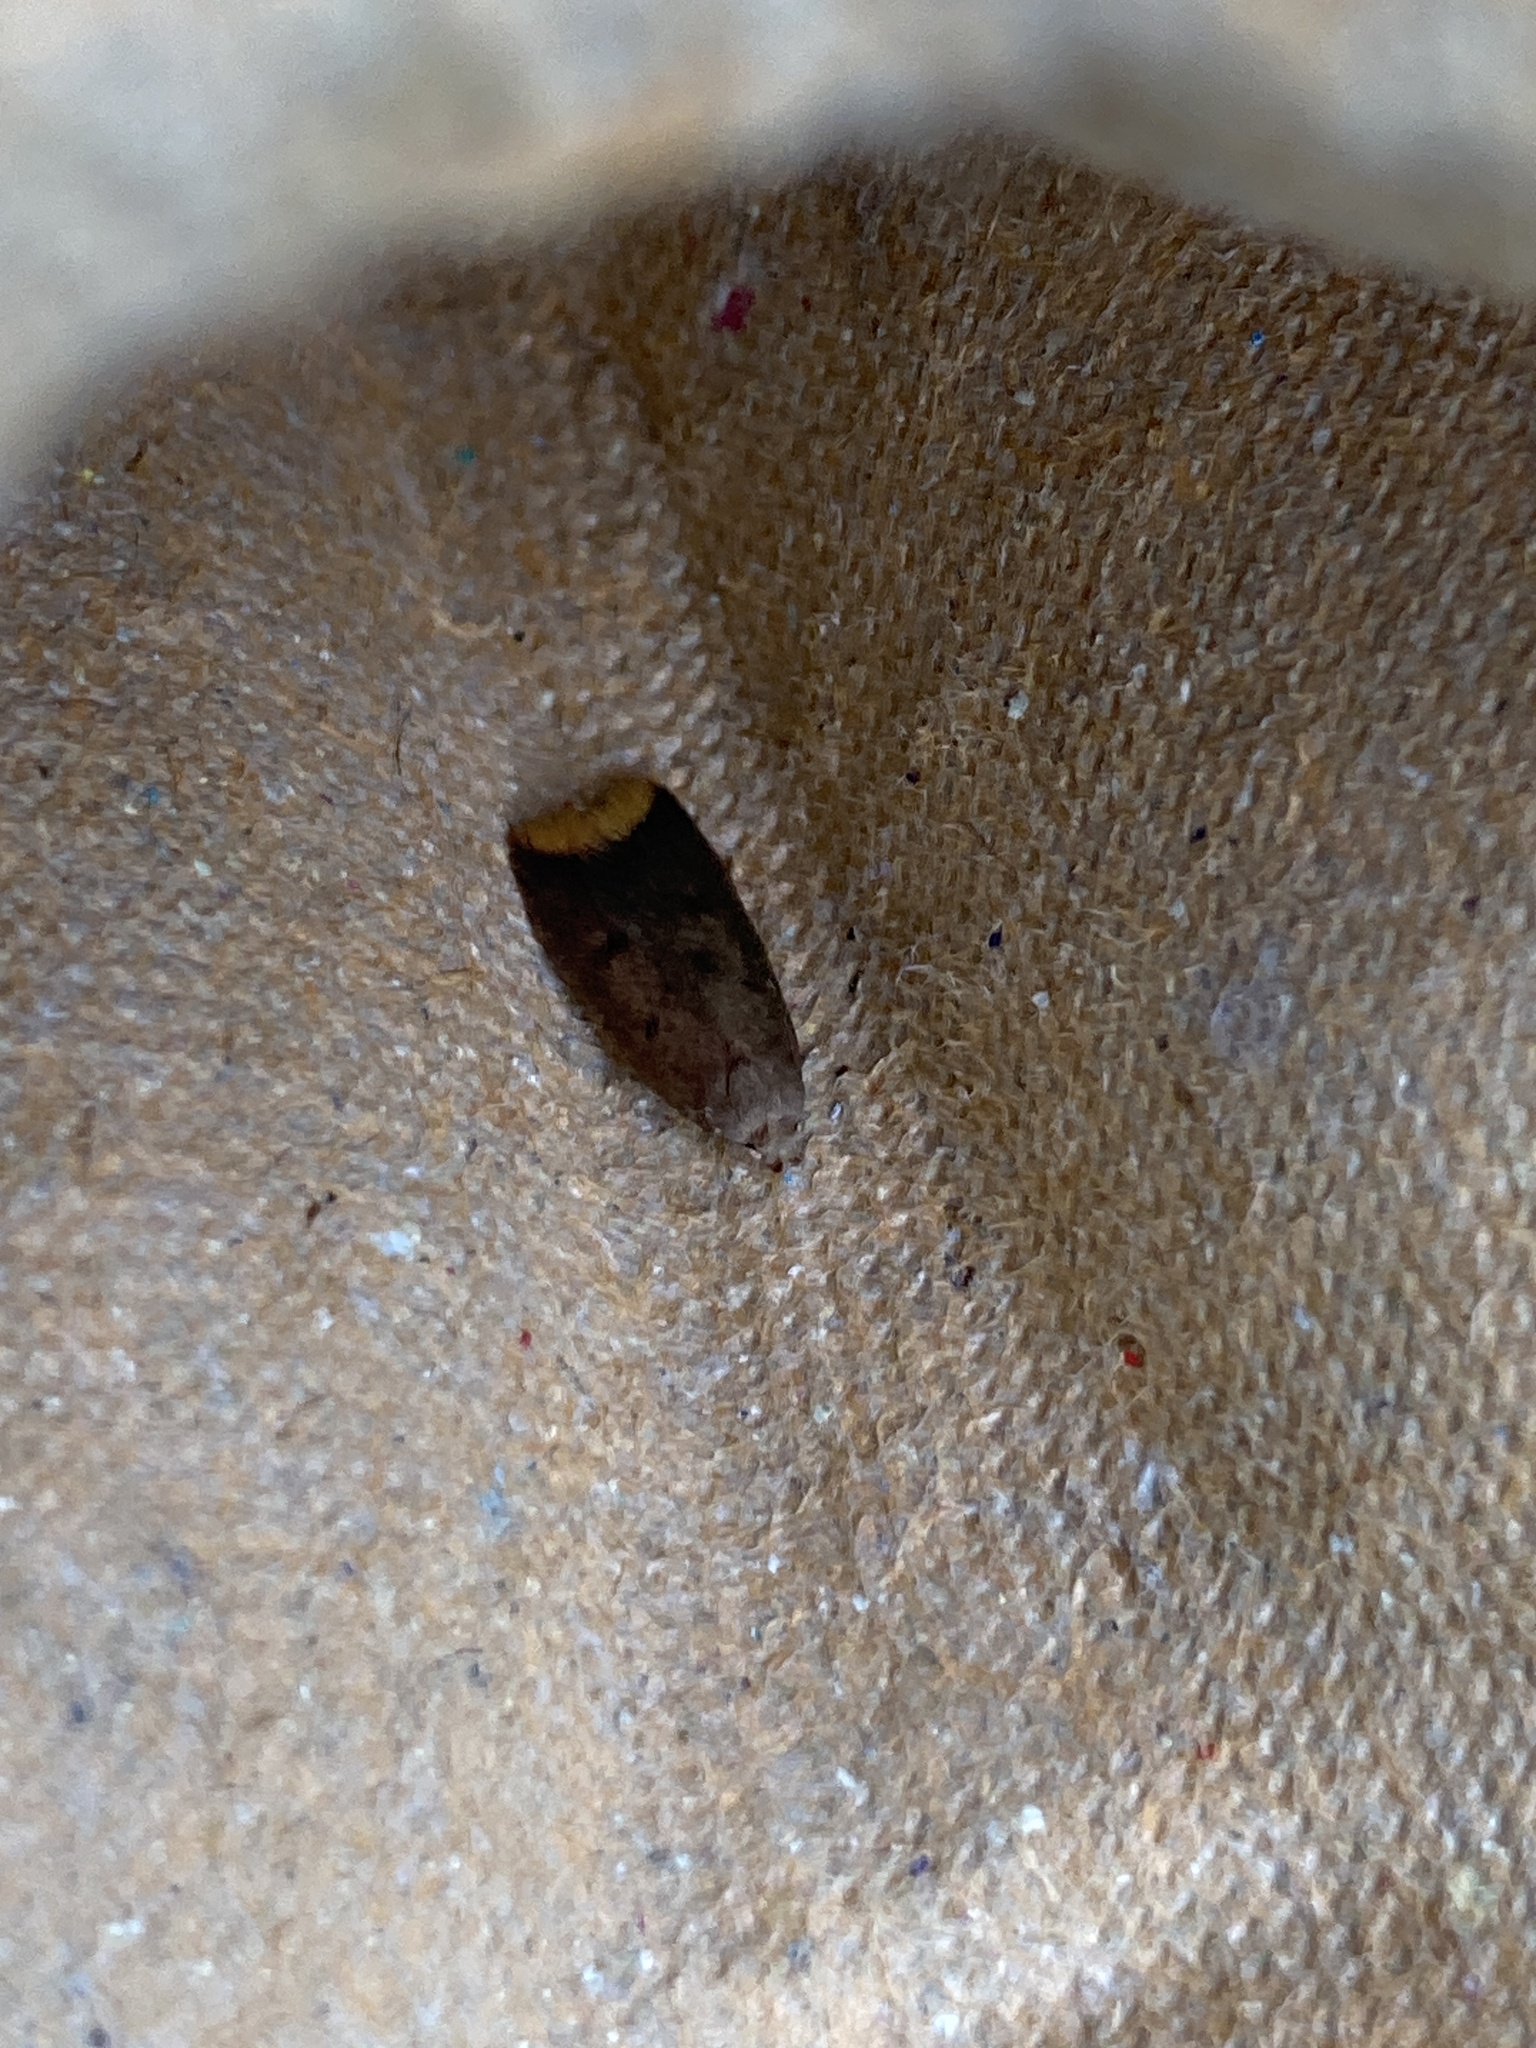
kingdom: Animalia
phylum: Arthropoda
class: Insecta
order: Lepidoptera
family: Oecophoridae
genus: Tachystola
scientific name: Tachystola acroxantha
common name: Ruddy streak
